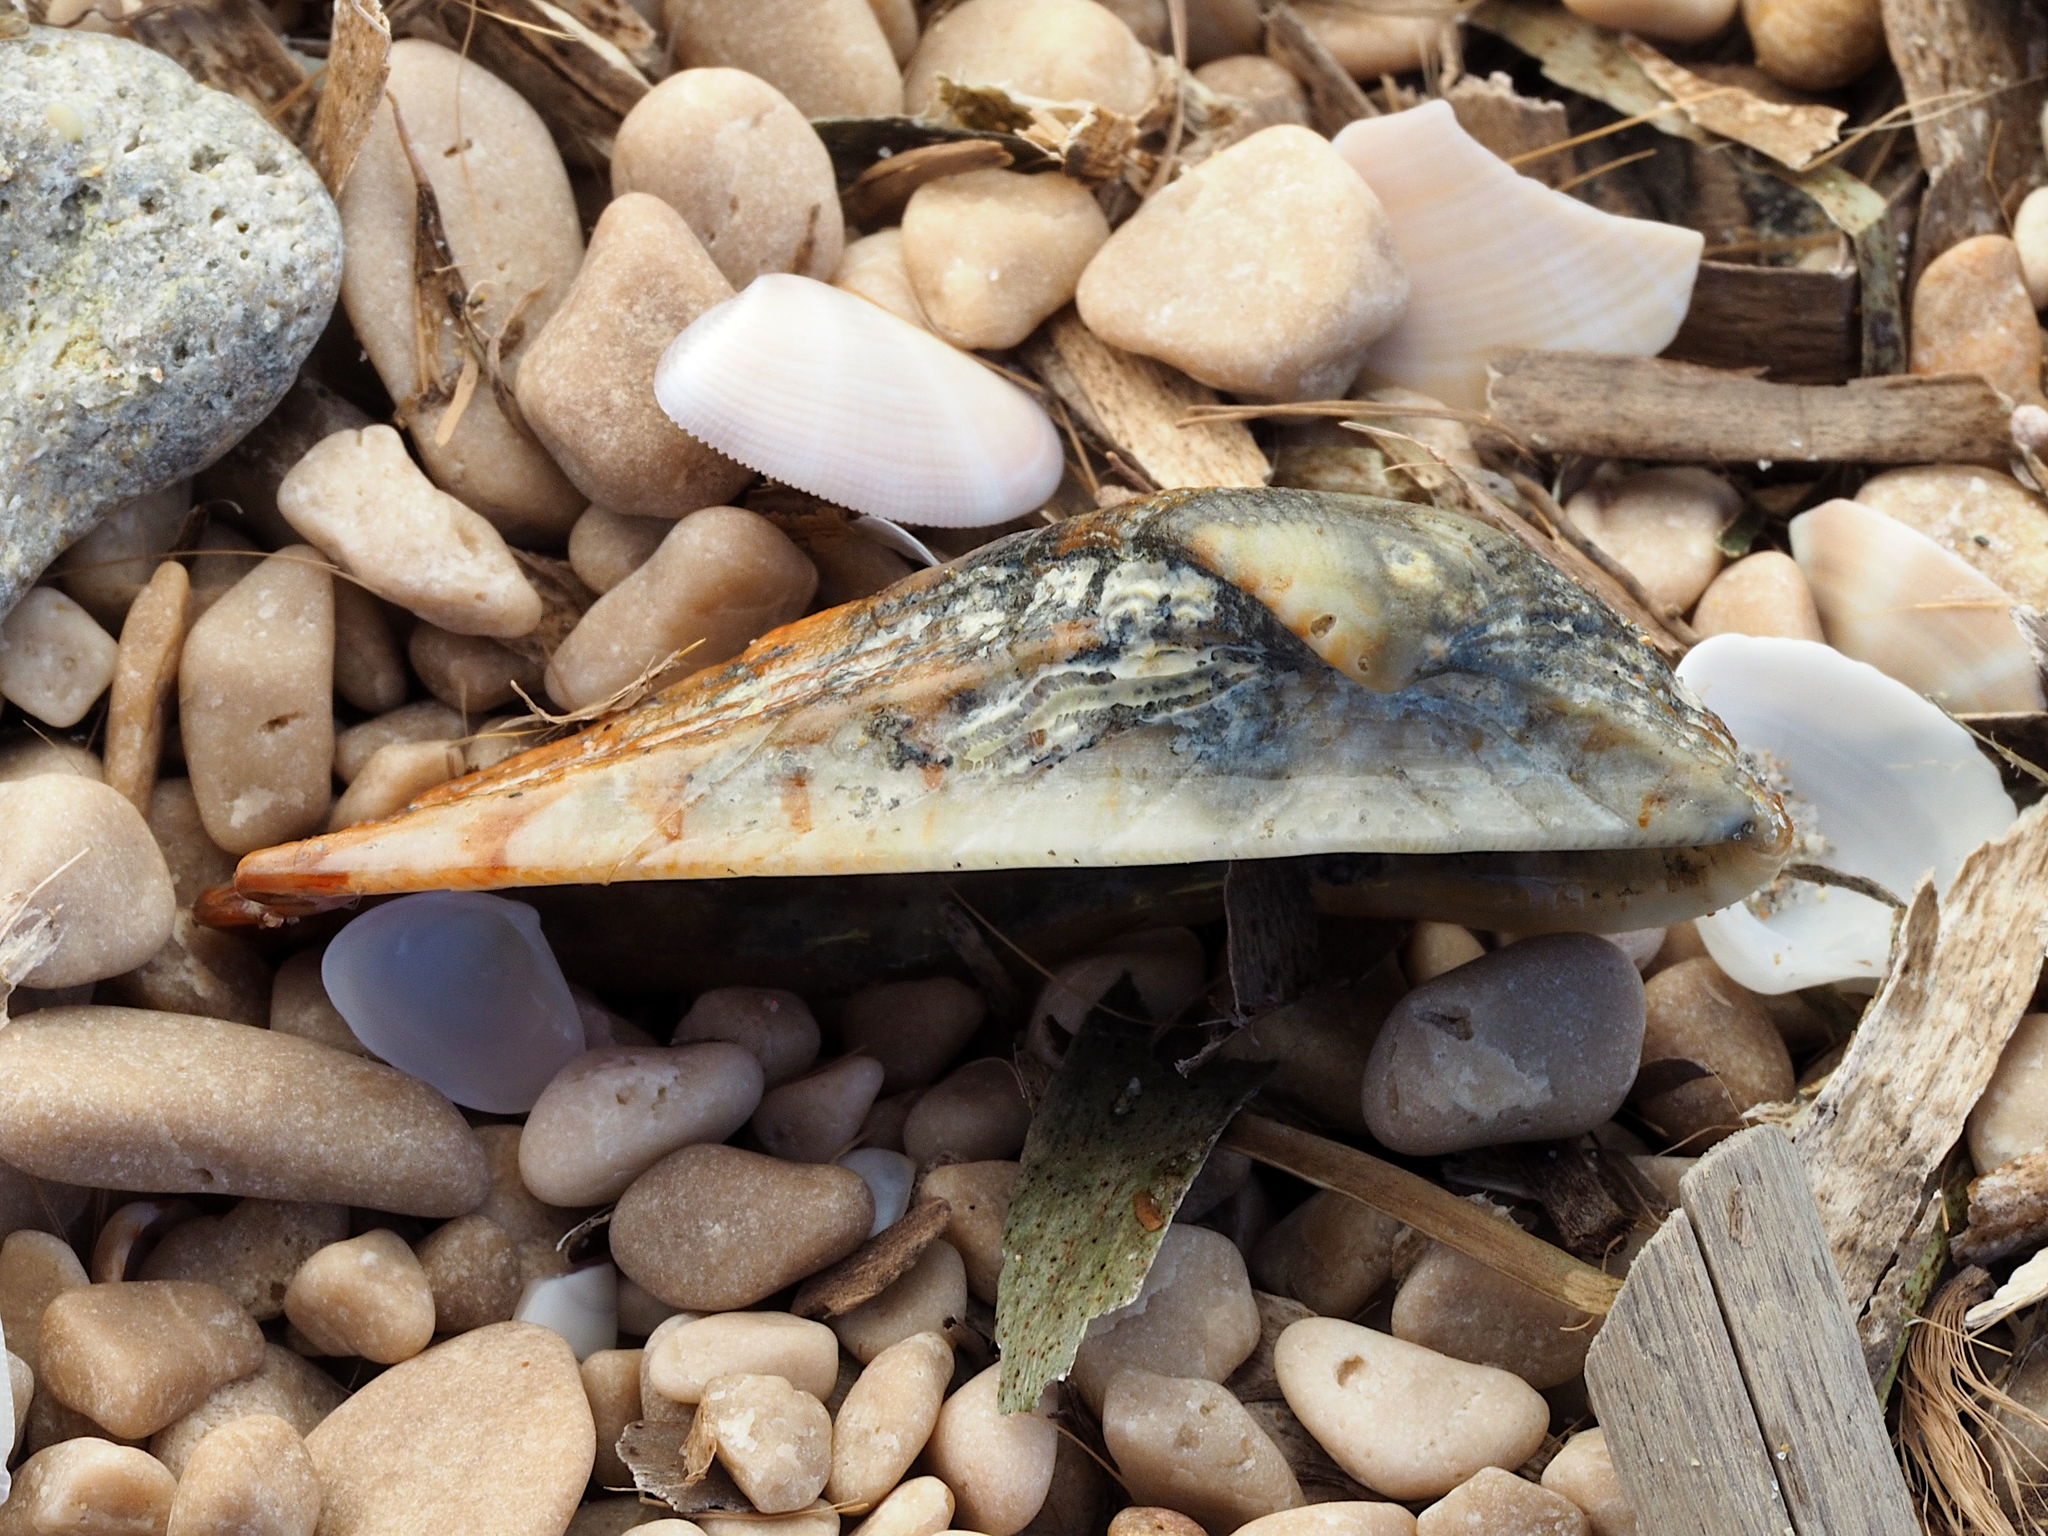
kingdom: Animalia
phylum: Mollusca
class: Bivalvia
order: Arcida
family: Arcidae
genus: Arca
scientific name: Arca noae
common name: Noah's arch
